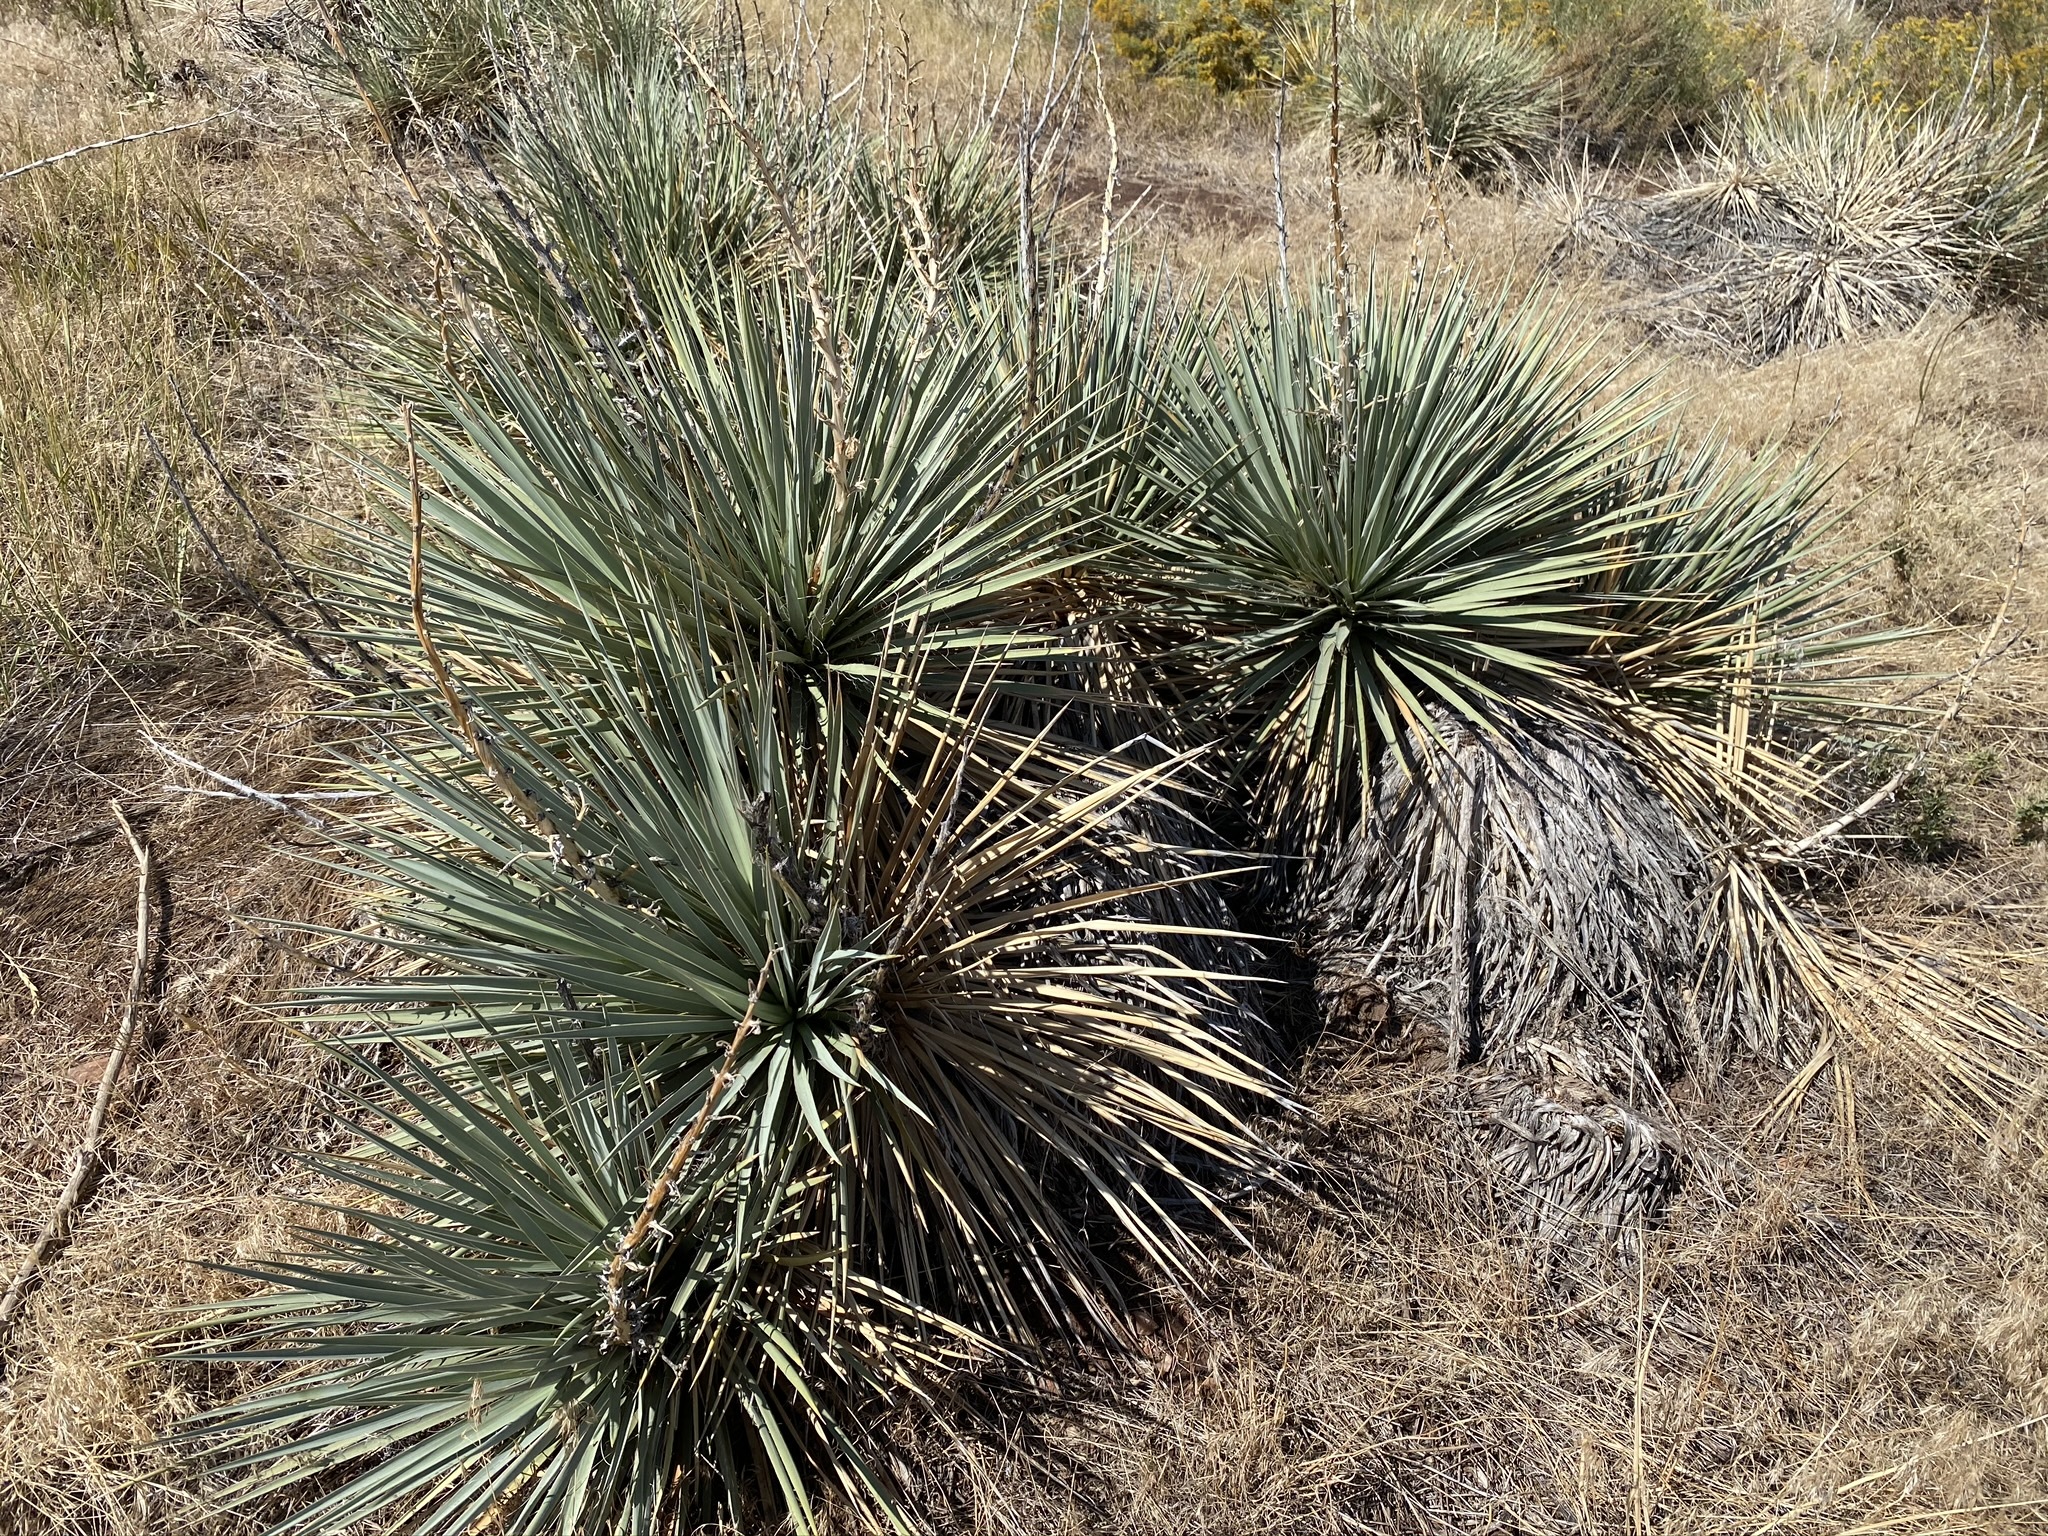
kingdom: Plantae
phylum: Tracheophyta
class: Liliopsida
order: Asparagales
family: Asparagaceae
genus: Yucca
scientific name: Yucca glauca
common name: Great plains yucca
